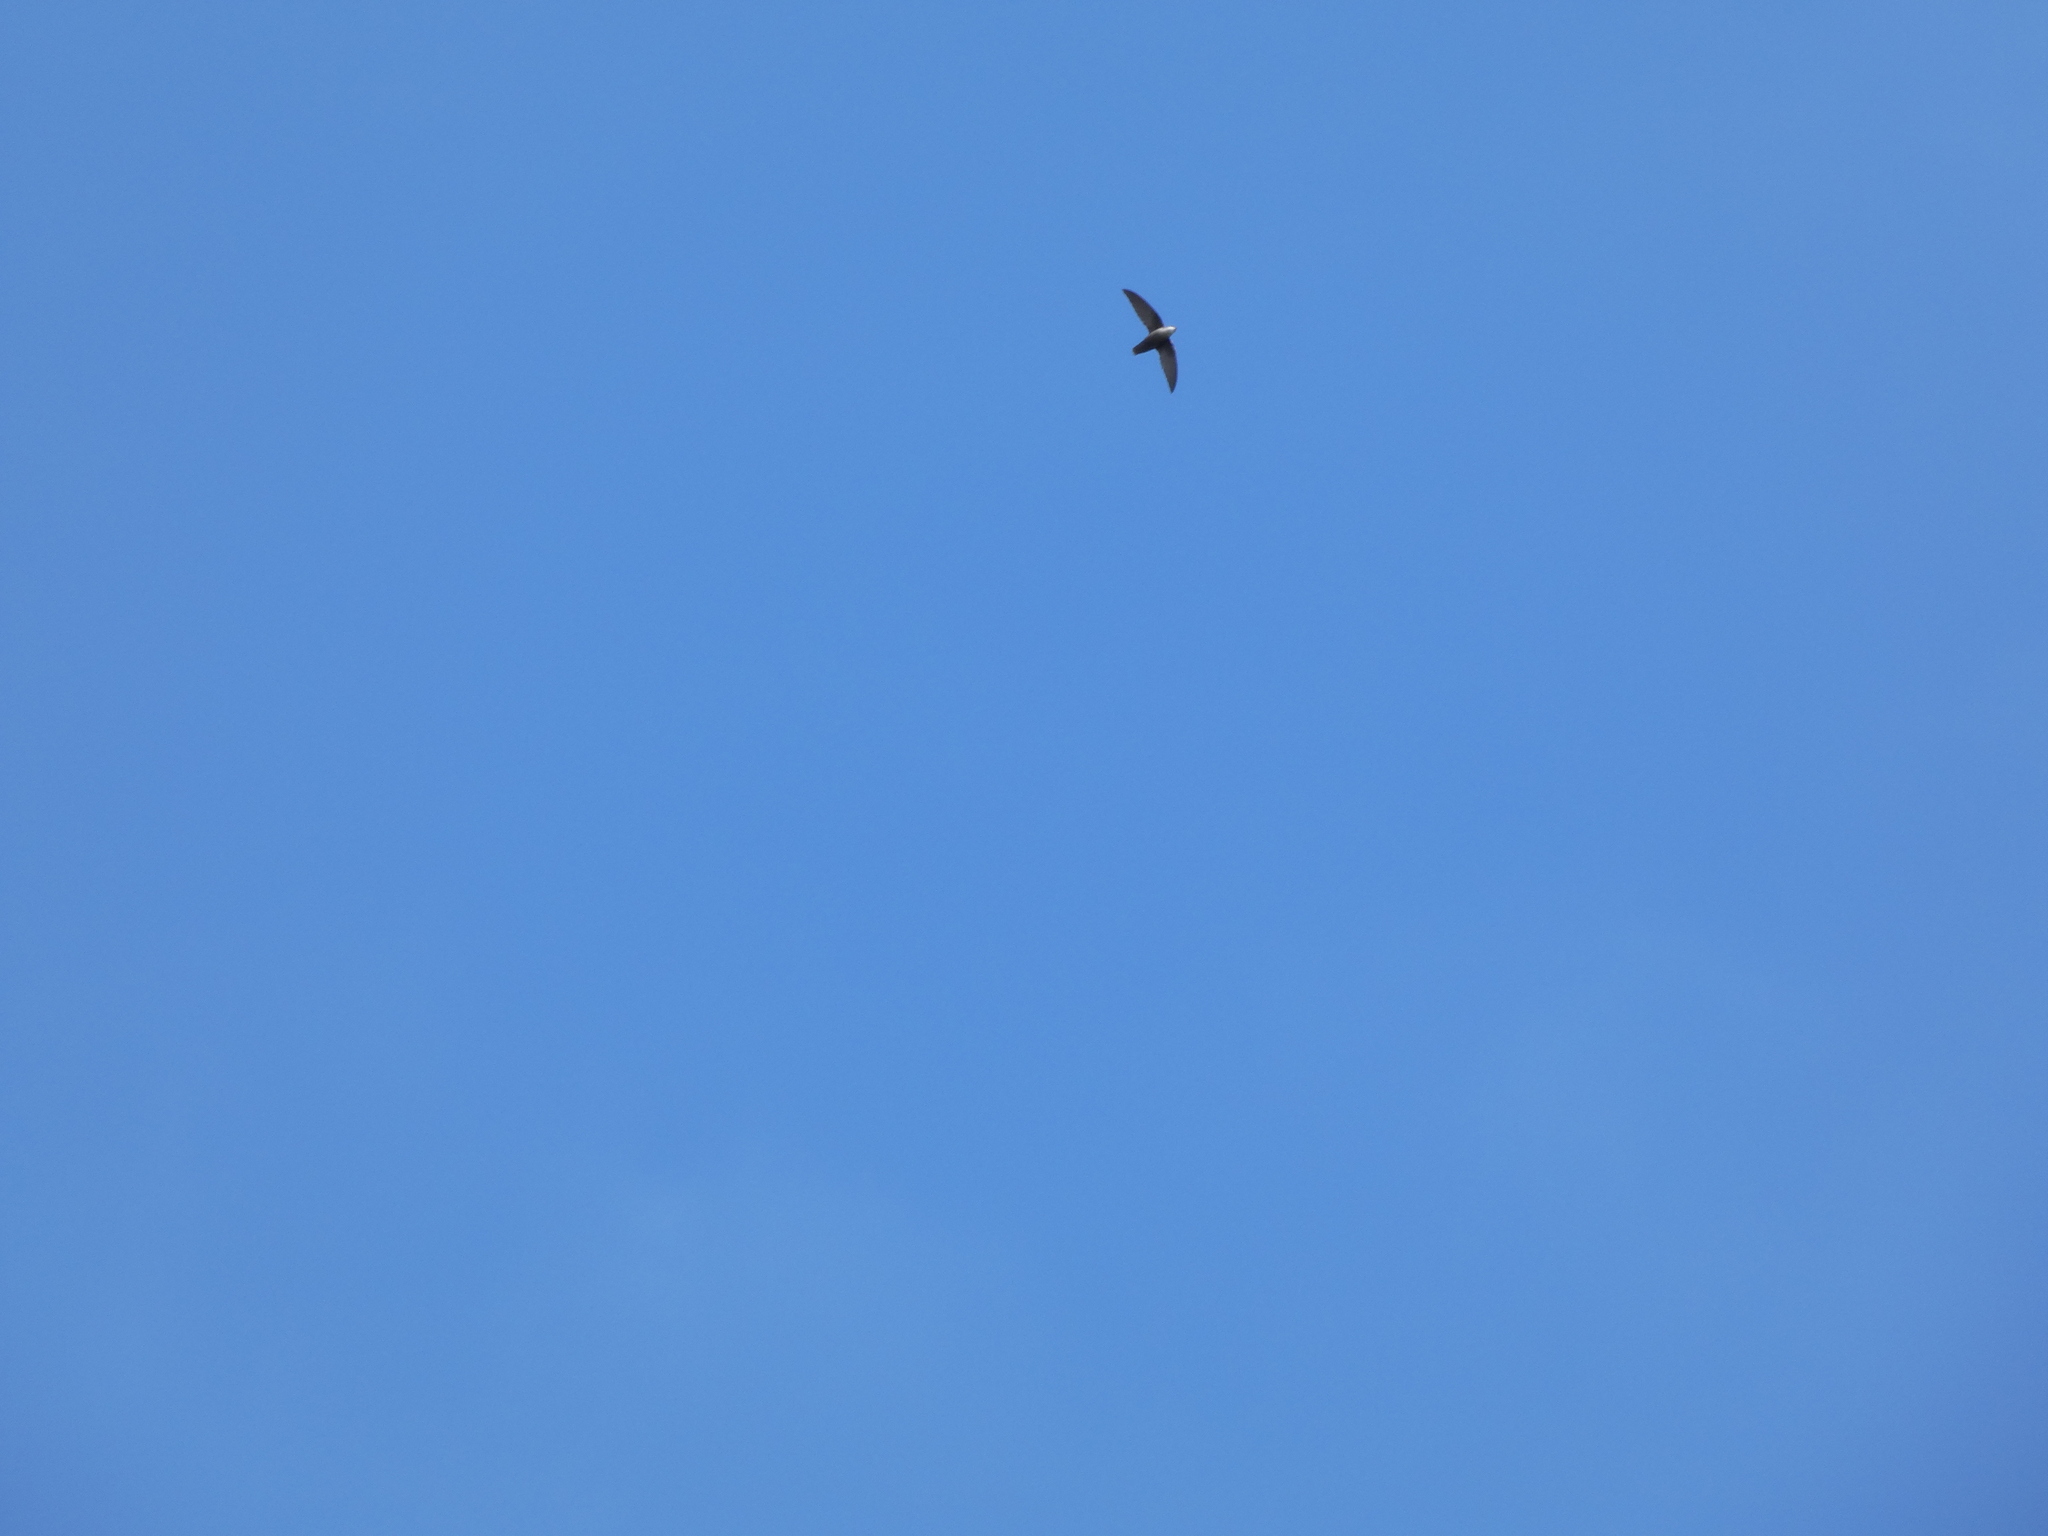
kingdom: Animalia
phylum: Chordata
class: Aves
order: Apodiformes
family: Apodidae
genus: Chaetura
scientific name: Chaetura pelagica
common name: Chimney swift
